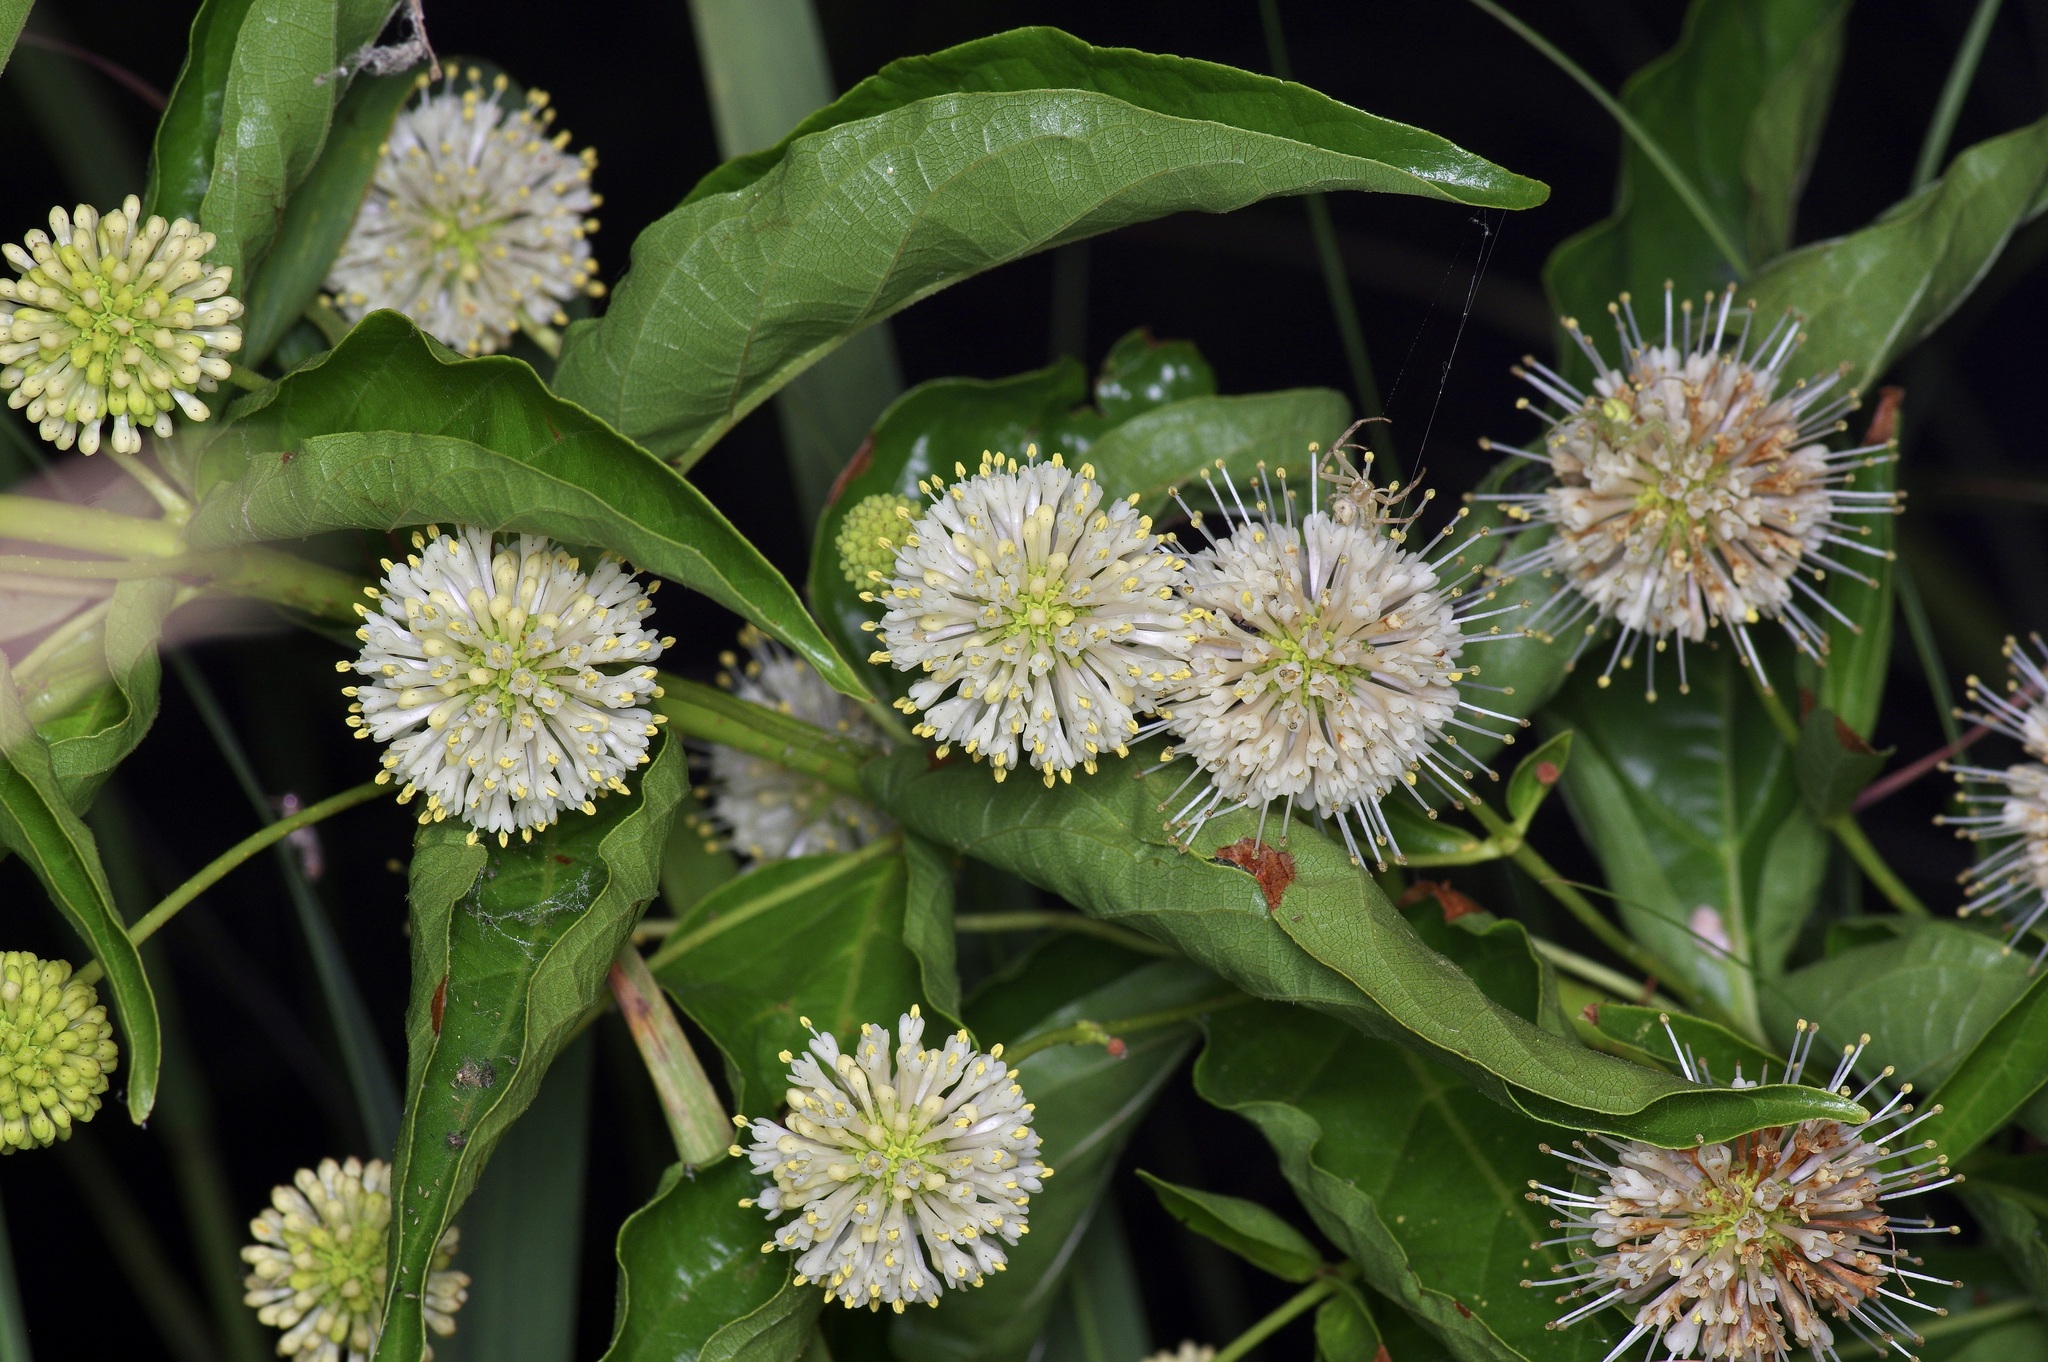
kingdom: Plantae
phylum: Tracheophyta
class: Magnoliopsida
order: Gentianales
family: Rubiaceae
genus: Cephalanthus
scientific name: Cephalanthus occidentalis
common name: Button-willow
